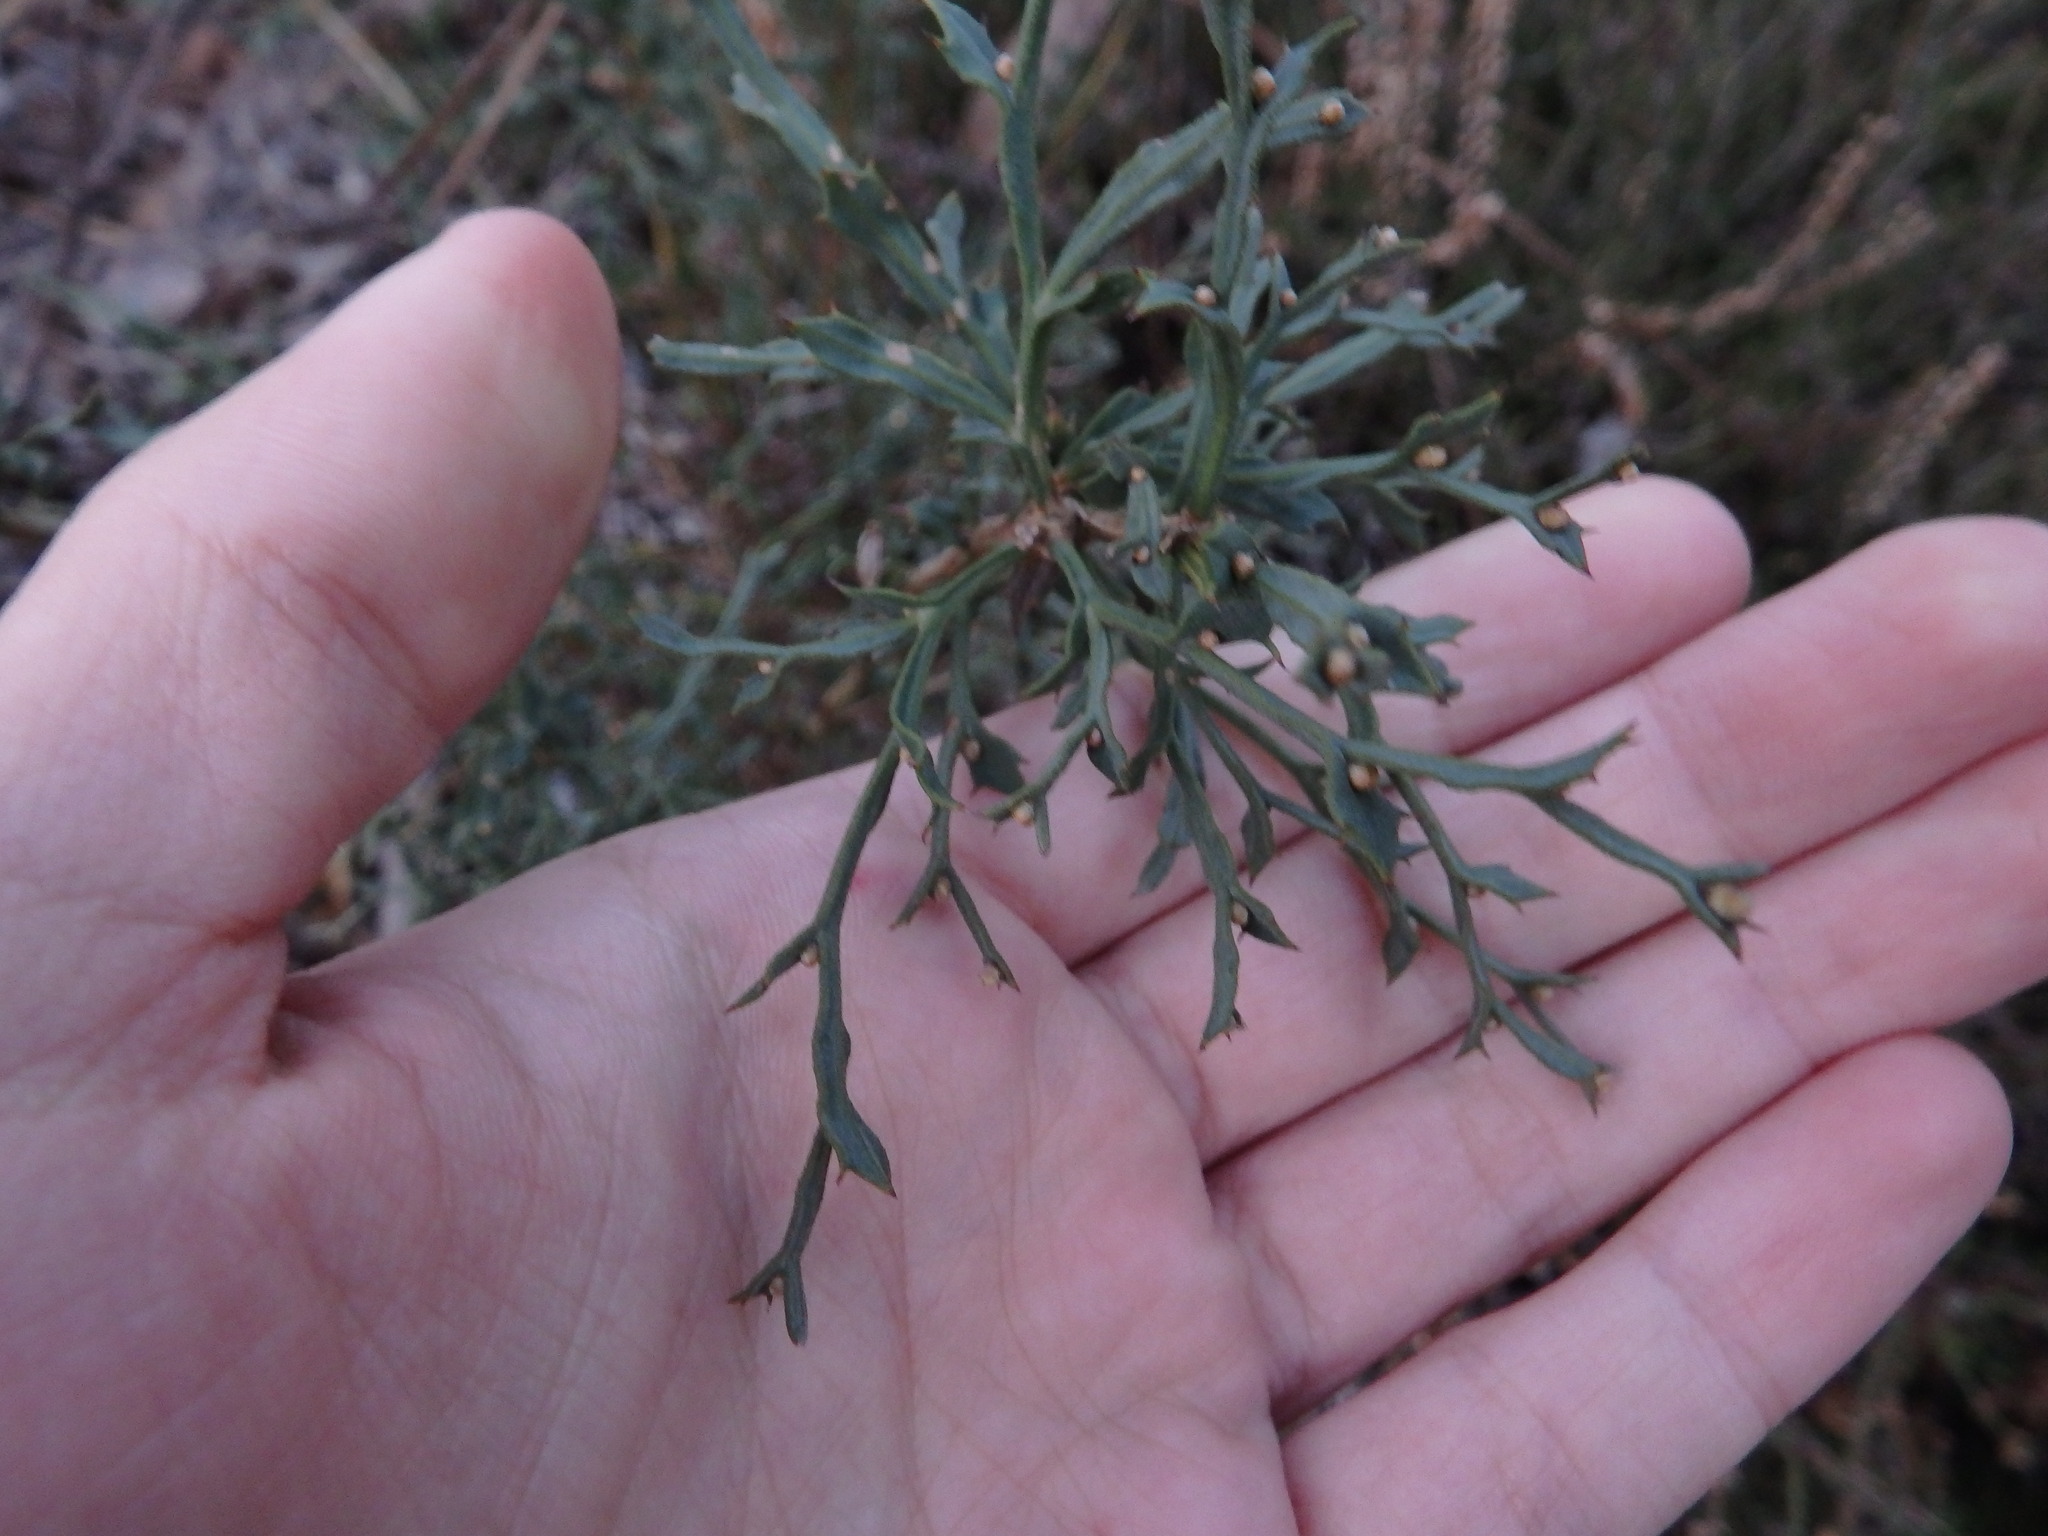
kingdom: Plantae
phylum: Tracheophyta
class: Magnoliopsida
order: Fabales
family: Fabaceae
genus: Genista
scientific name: Genista tridentata
